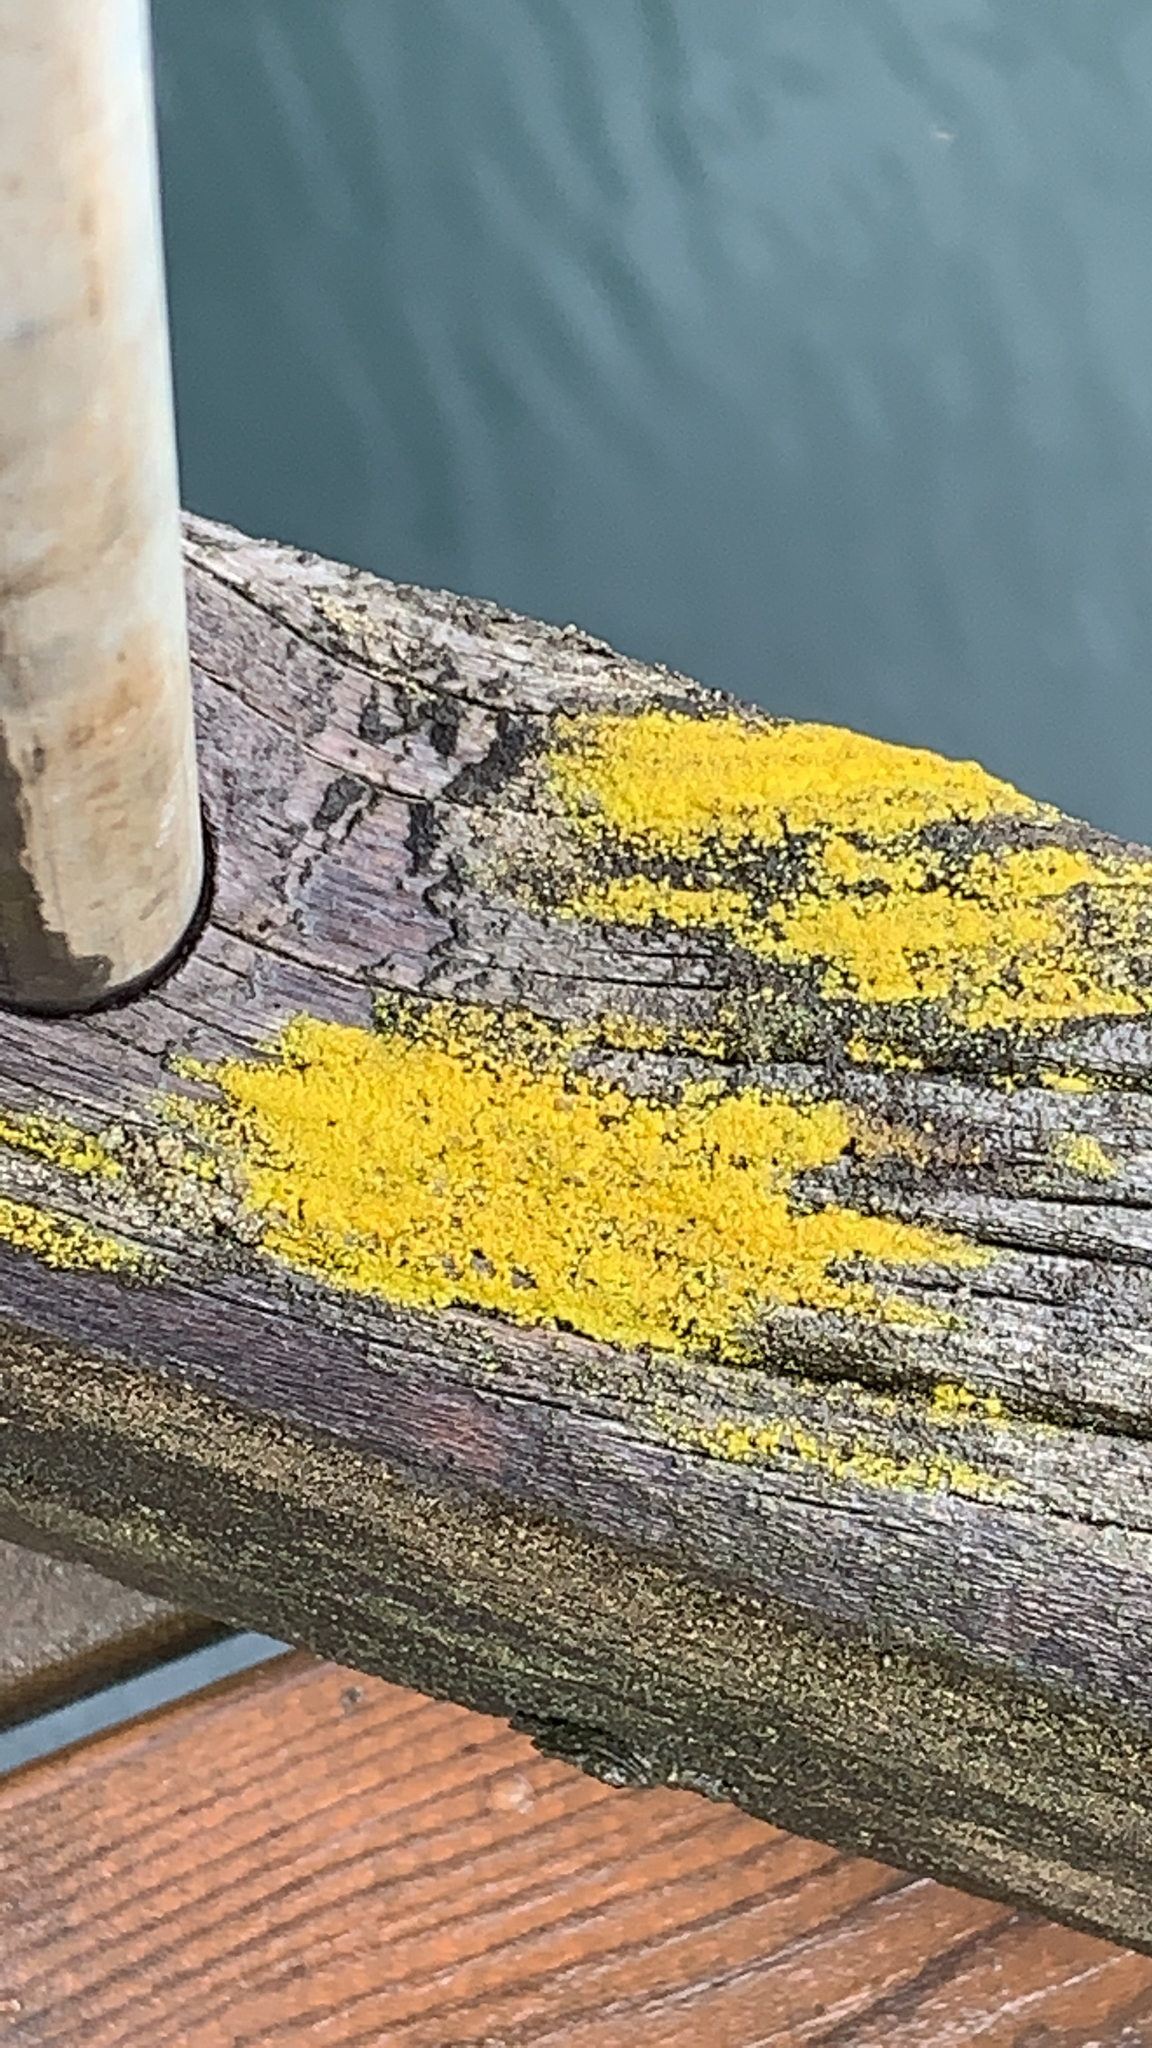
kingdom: Fungi
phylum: Ascomycota
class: Arthoniomycetes
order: Arthoniales
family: Chrysotrichaceae
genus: Chrysothrix
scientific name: Chrysothrix candelaris
